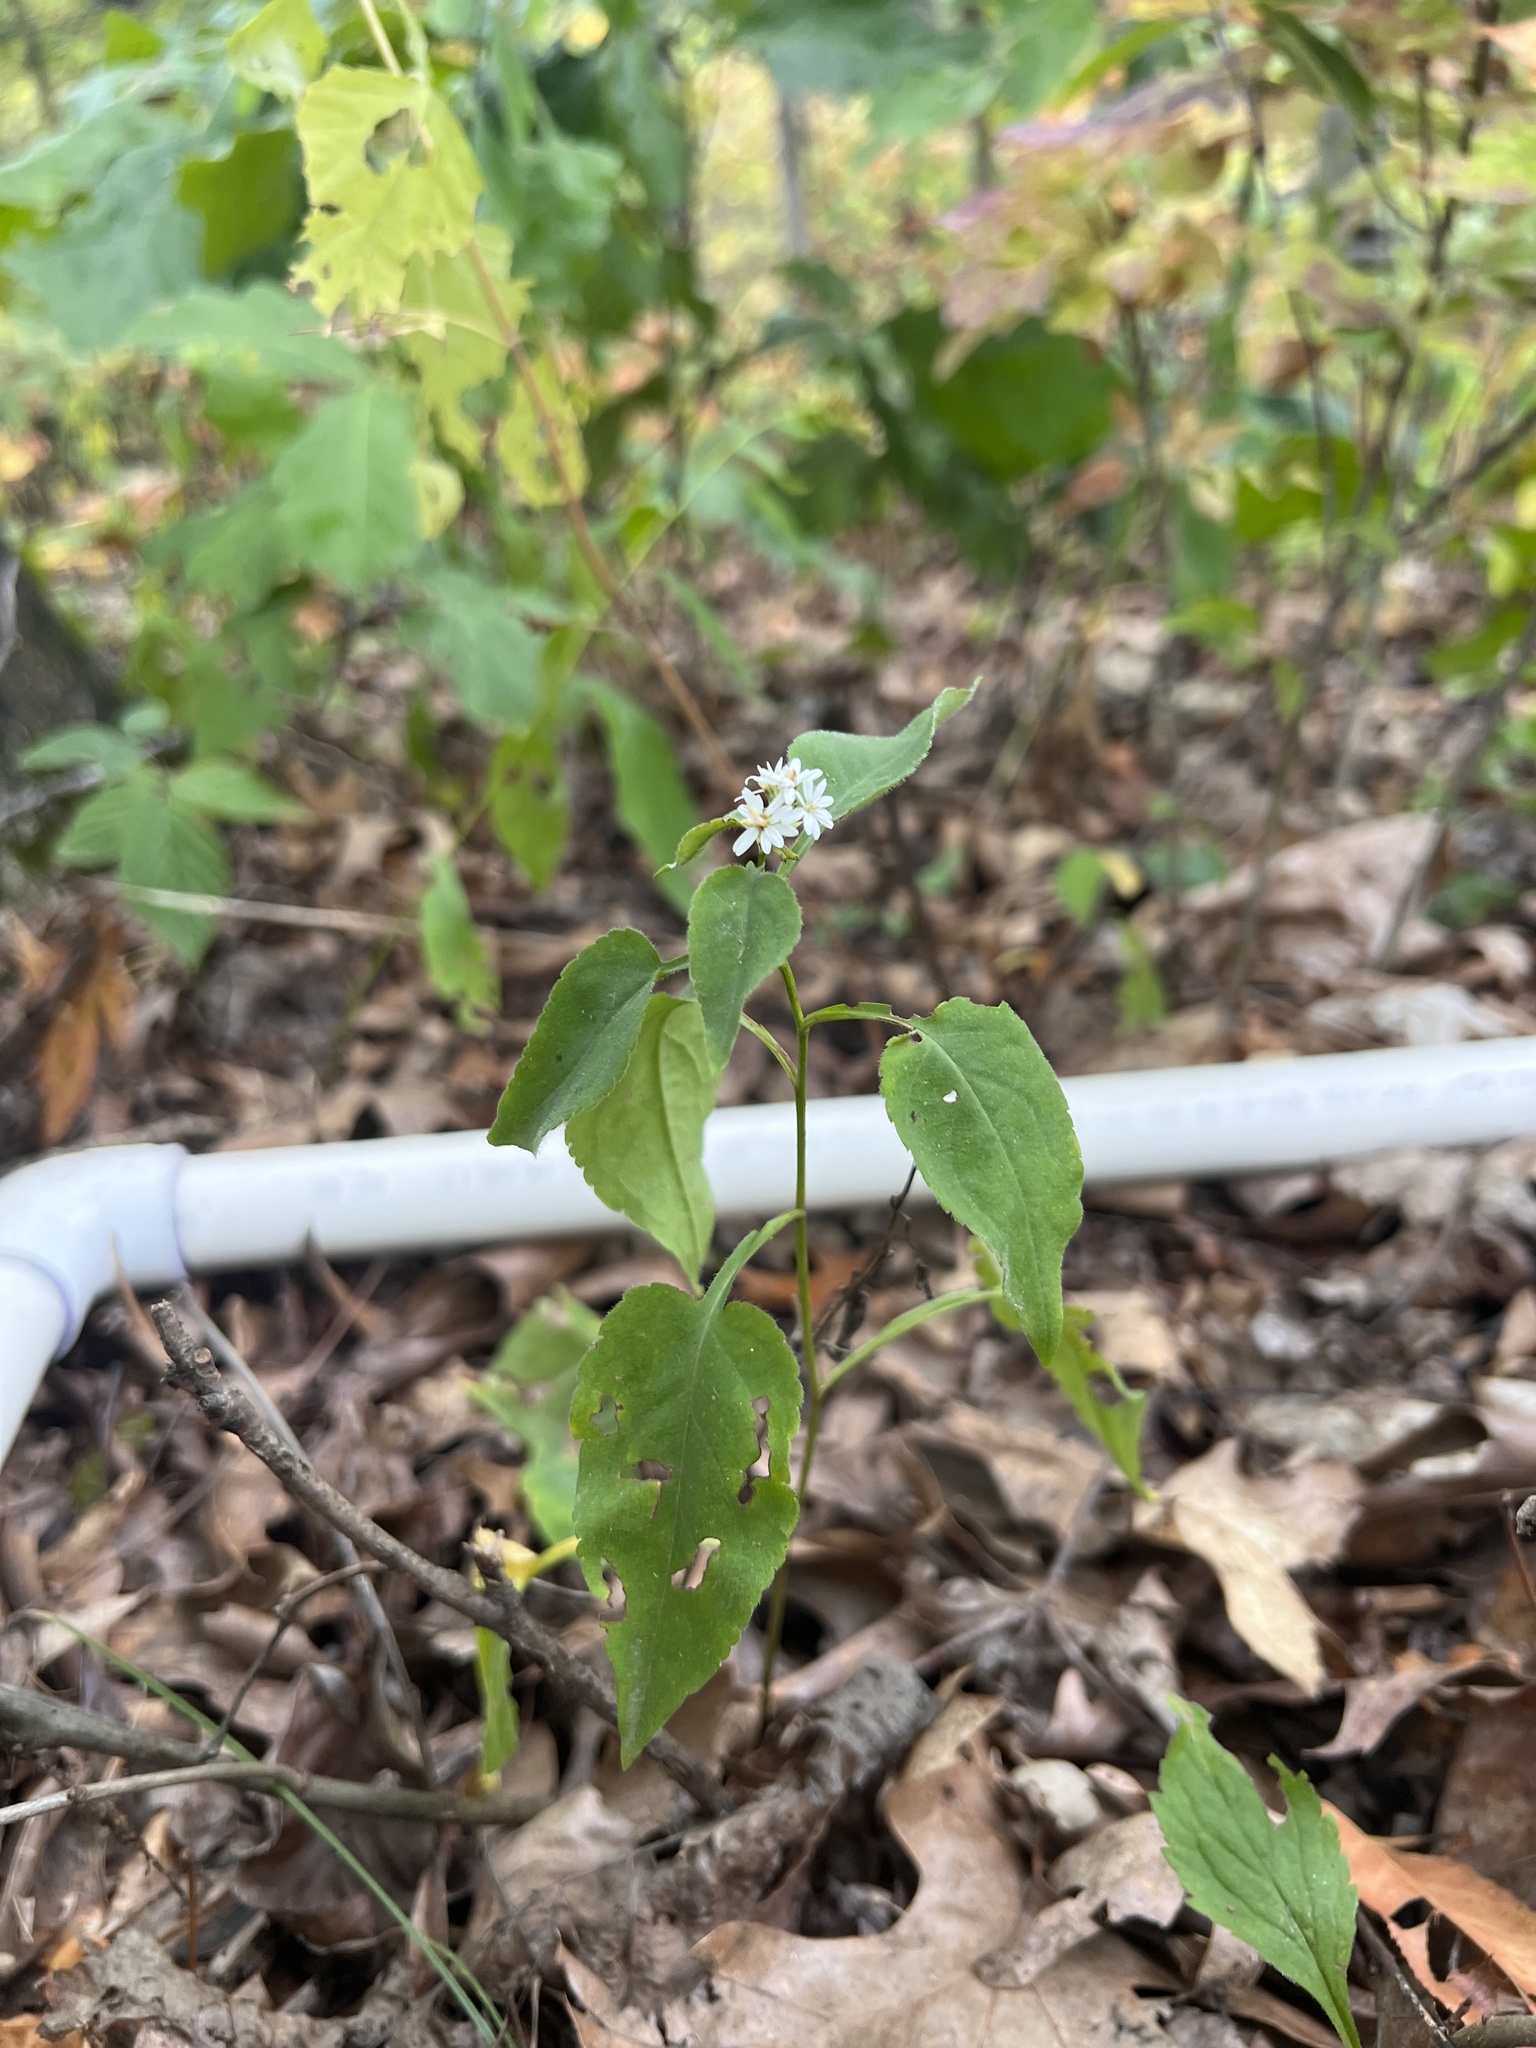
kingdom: Plantae
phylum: Tracheophyta
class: Magnoliopsida
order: Asterales
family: Asteraceae
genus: Symphyotrichum
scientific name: Symphyotrichum urophyllum
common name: Arrow-leaved aster
